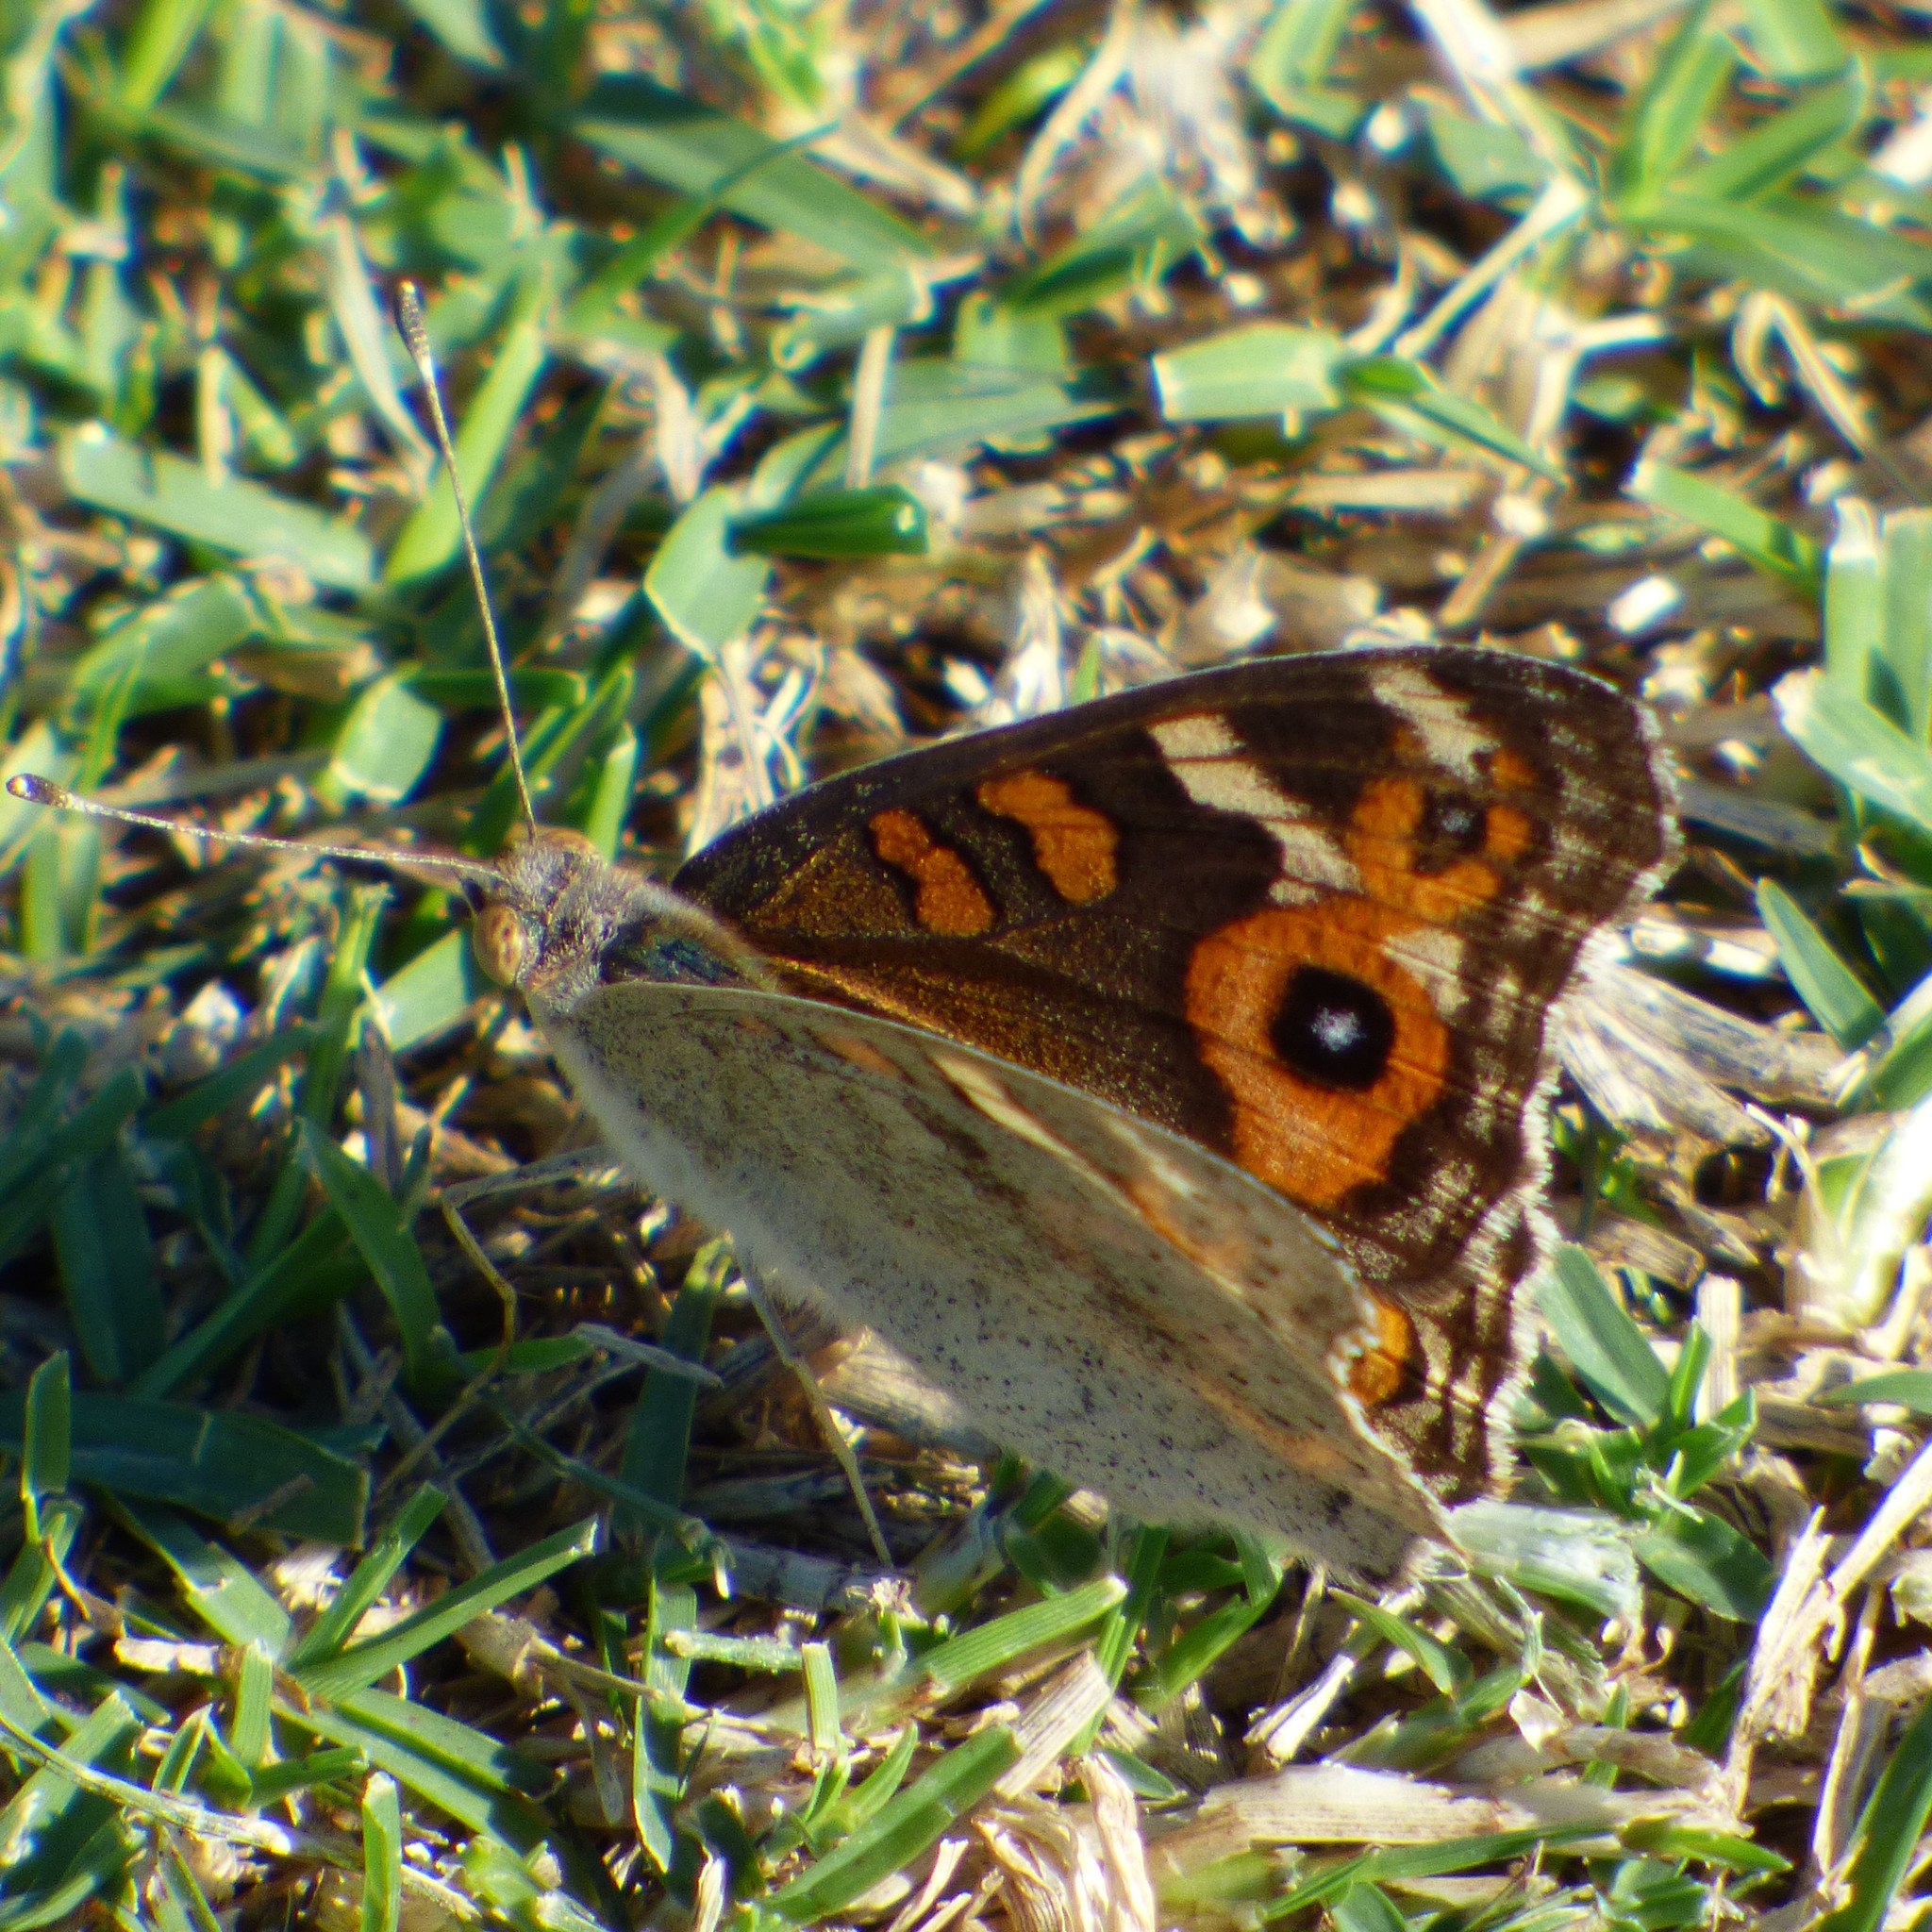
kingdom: Animalia
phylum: Arthropoda
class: Insecta
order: Lepidoptera
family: Nymphalidae
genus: Junonia
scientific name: Junonia villida
